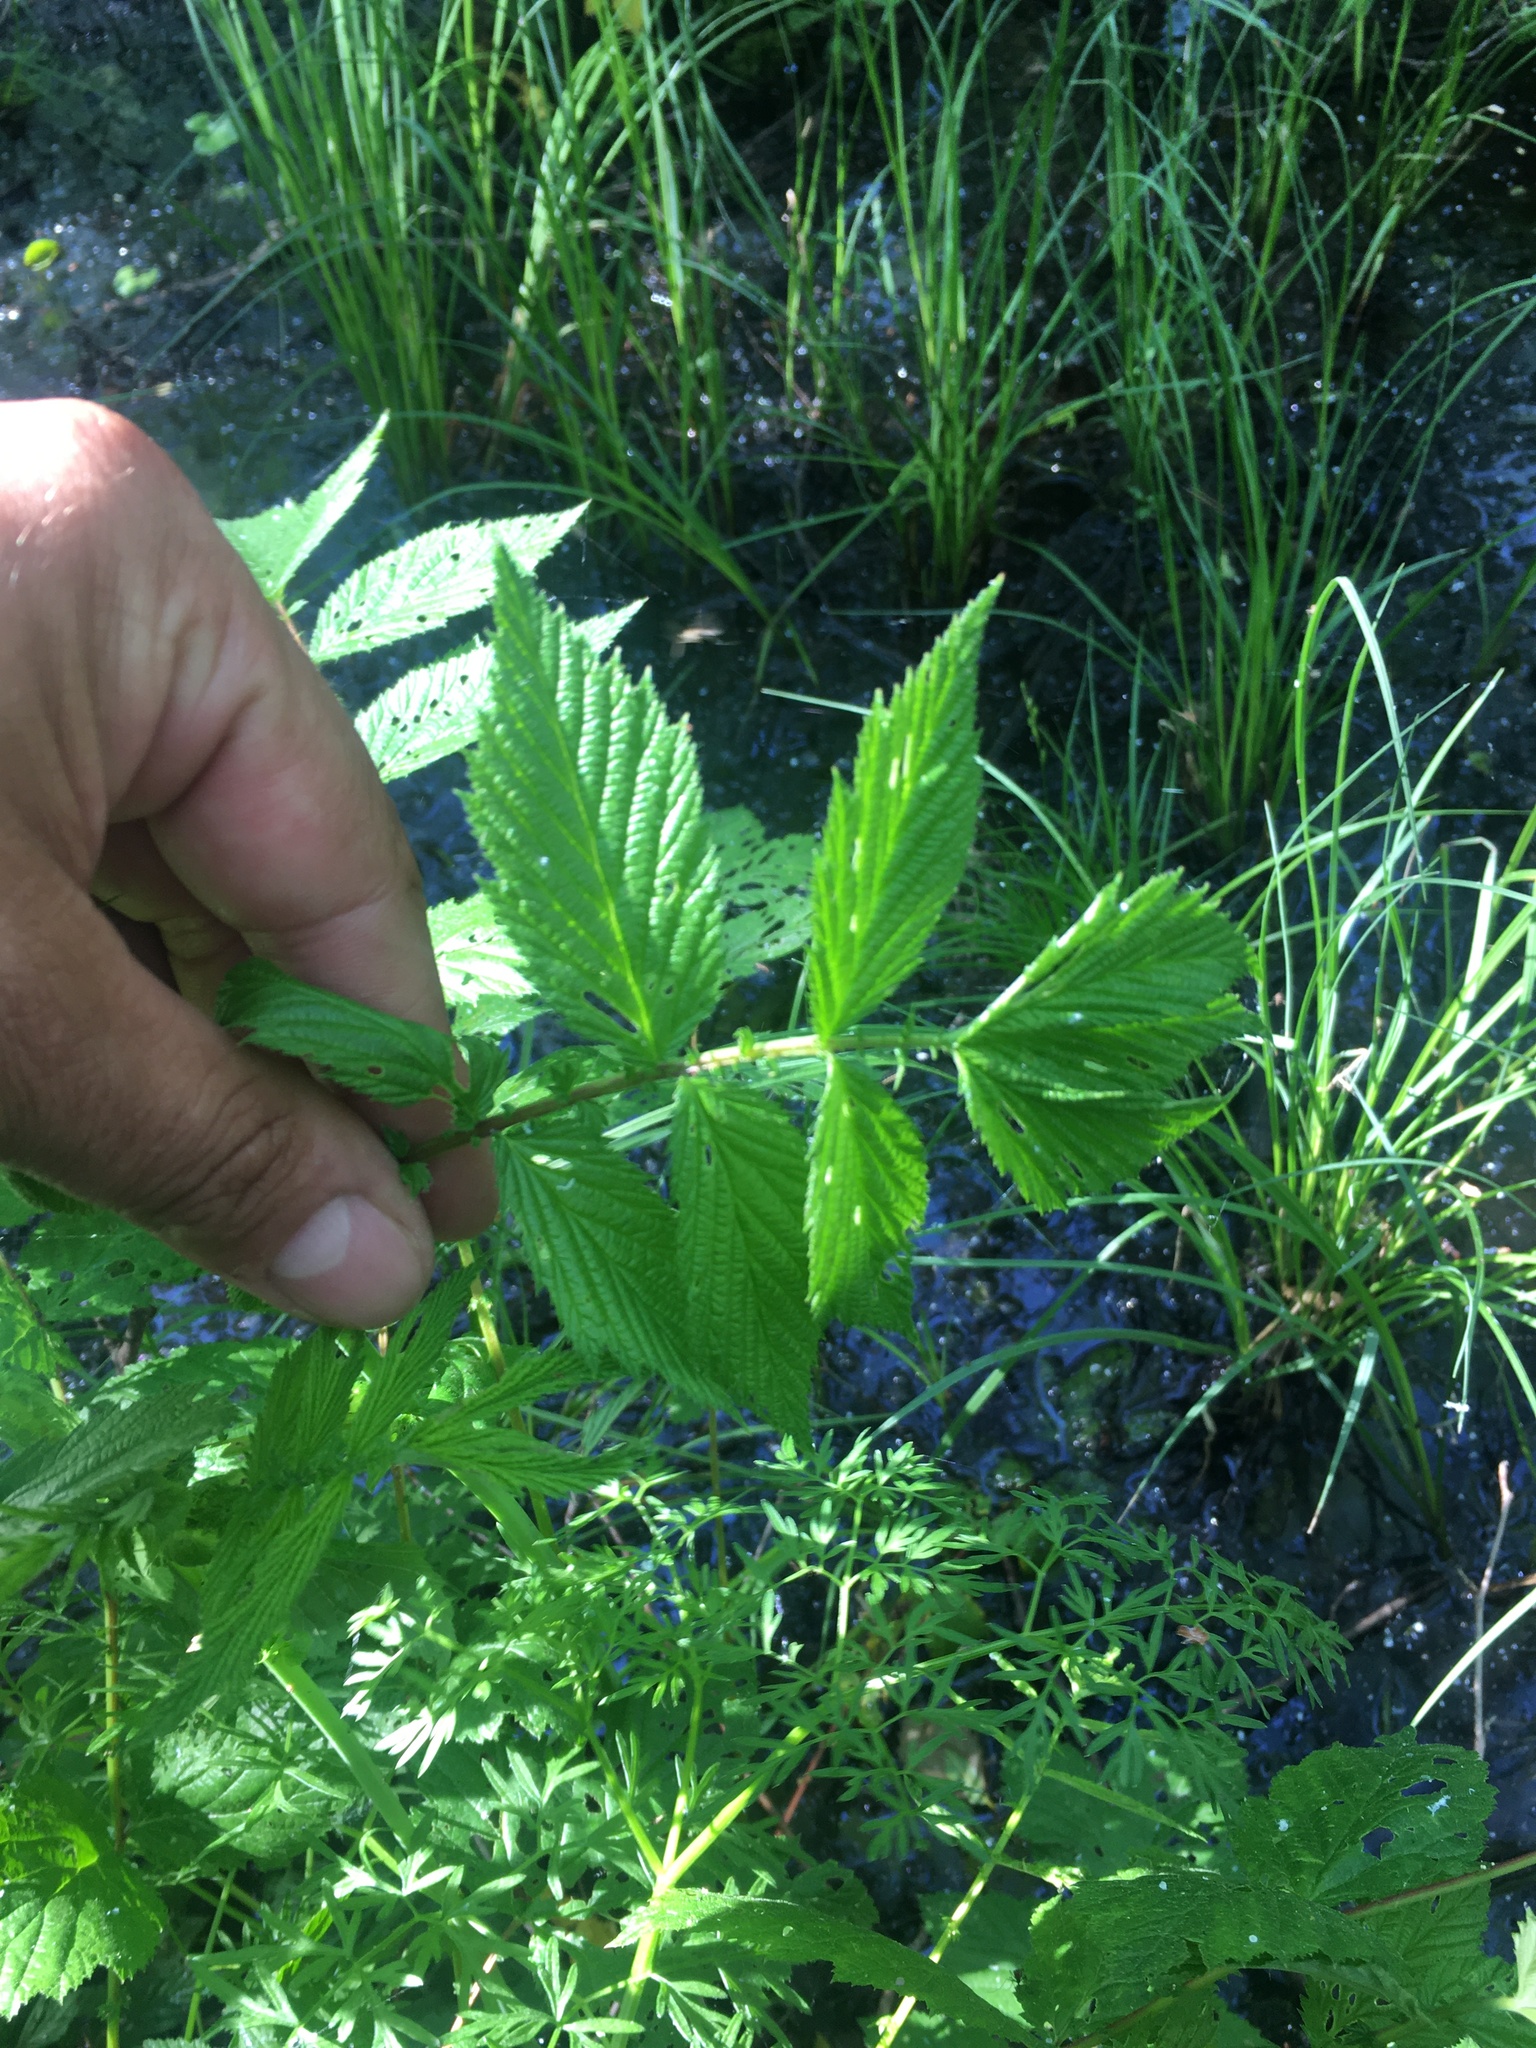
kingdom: Plantae
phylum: Tracheophyta
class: Magnoliopsida
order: Rosales
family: Rosaceae
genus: Filipendula
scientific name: Filipendula ulmaria
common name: Meadowsweet
